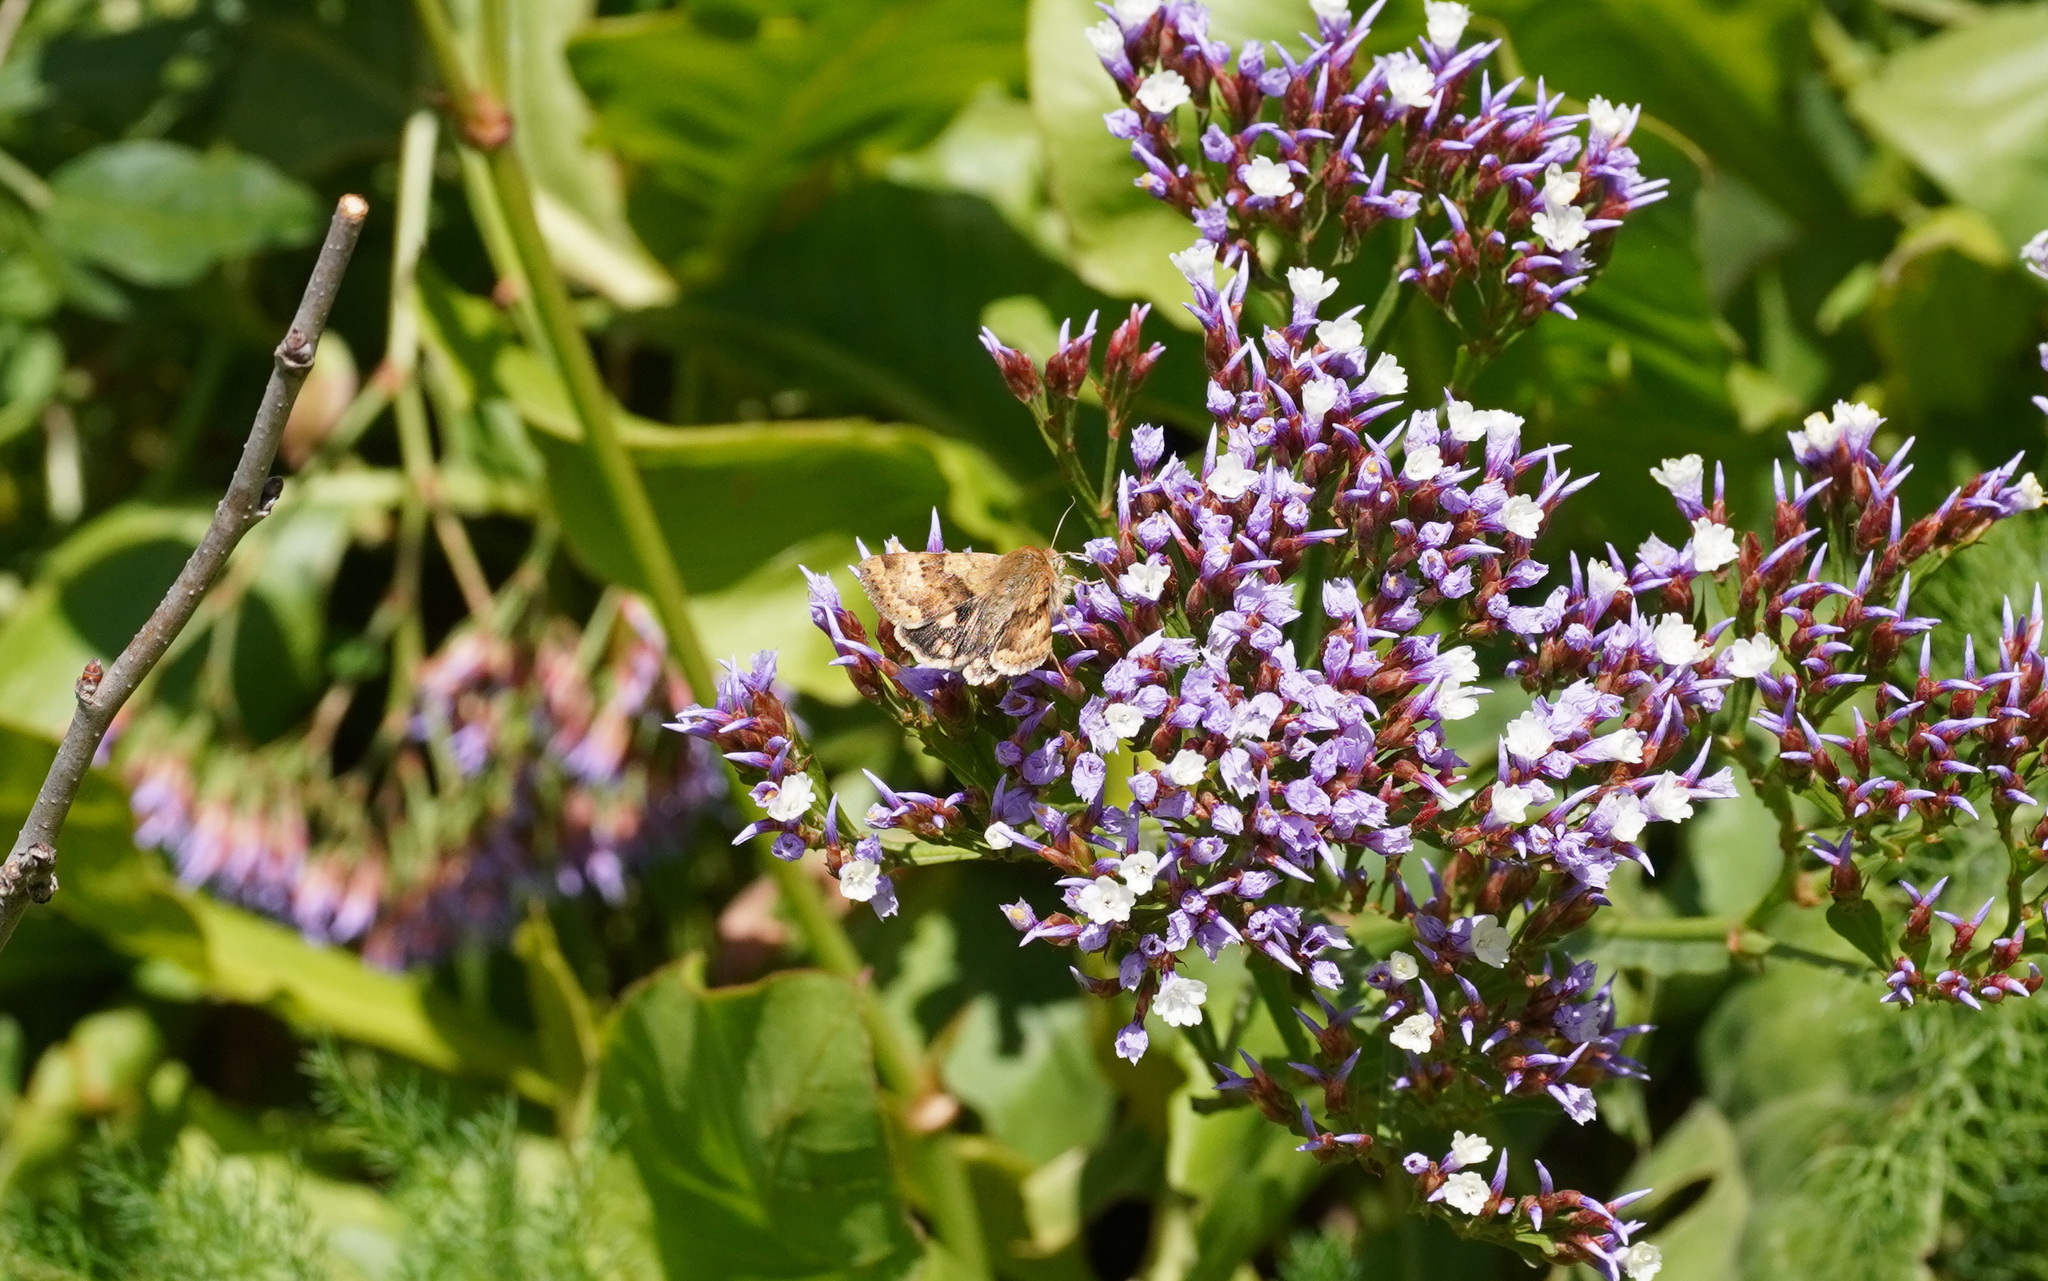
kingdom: Animalia
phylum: Arthropoda
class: Insecta
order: Lepidoptera
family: Noctuidae
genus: Heliothis
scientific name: Heliothis viriplaca
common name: Marbled clover
